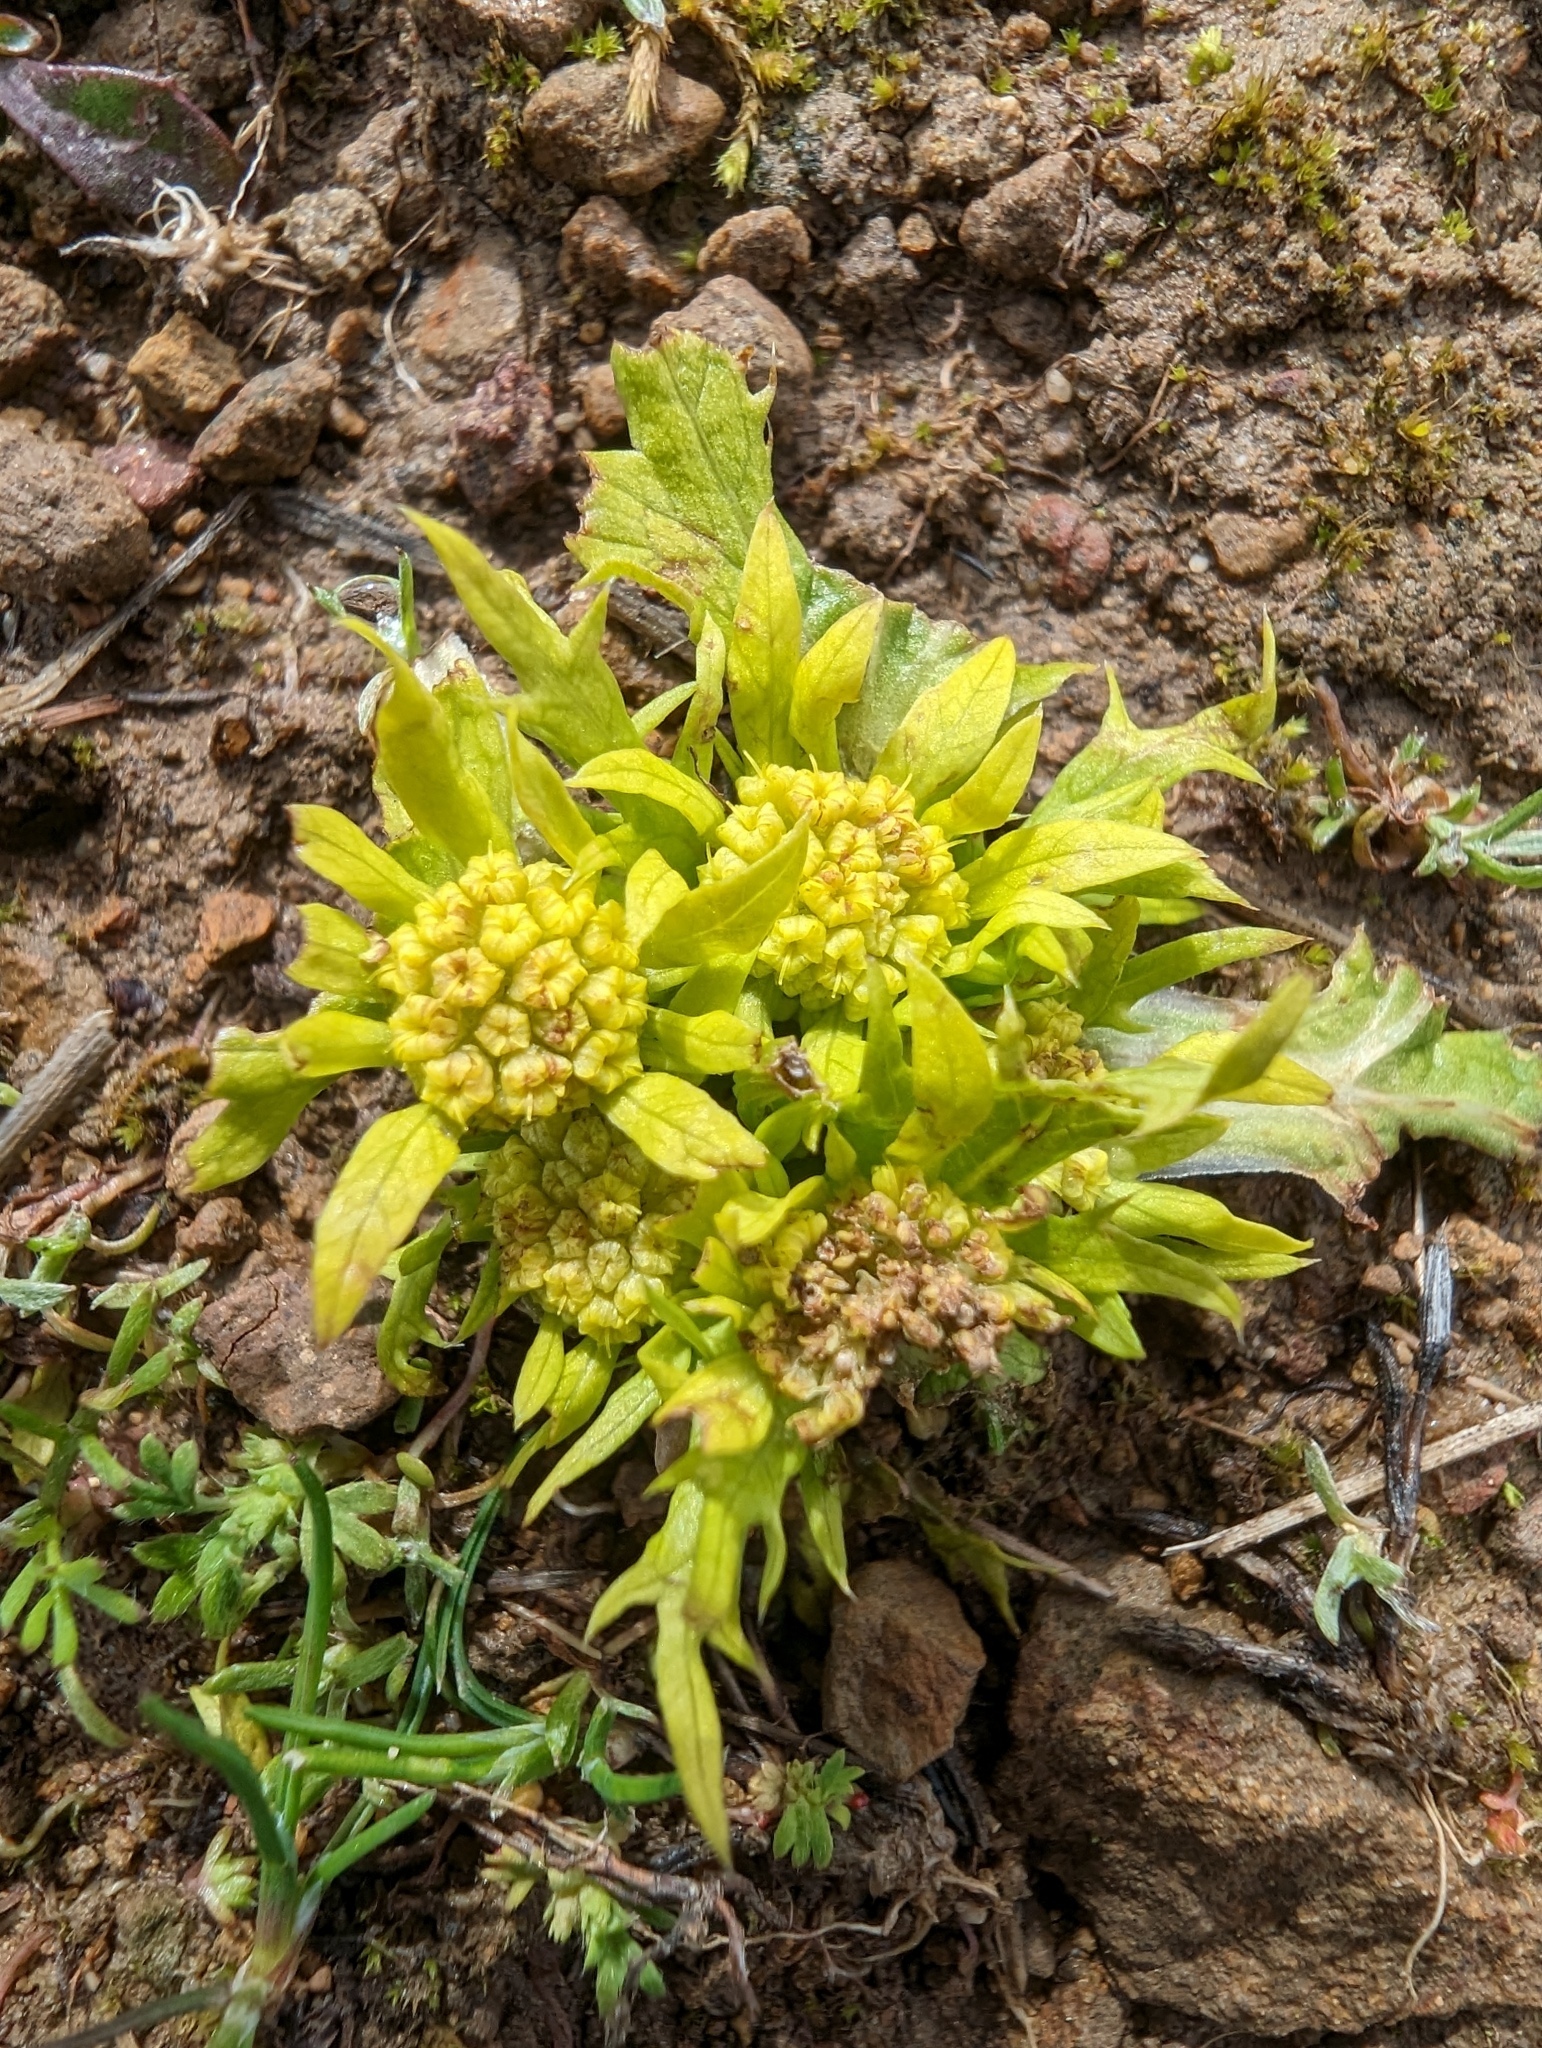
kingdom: Plantae
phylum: Tracheophyta
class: Magnoliopsida
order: Apiales
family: Apiaceae
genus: Sanicula
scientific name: Sanicula arctopoides
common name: Footsteps-of-spring
